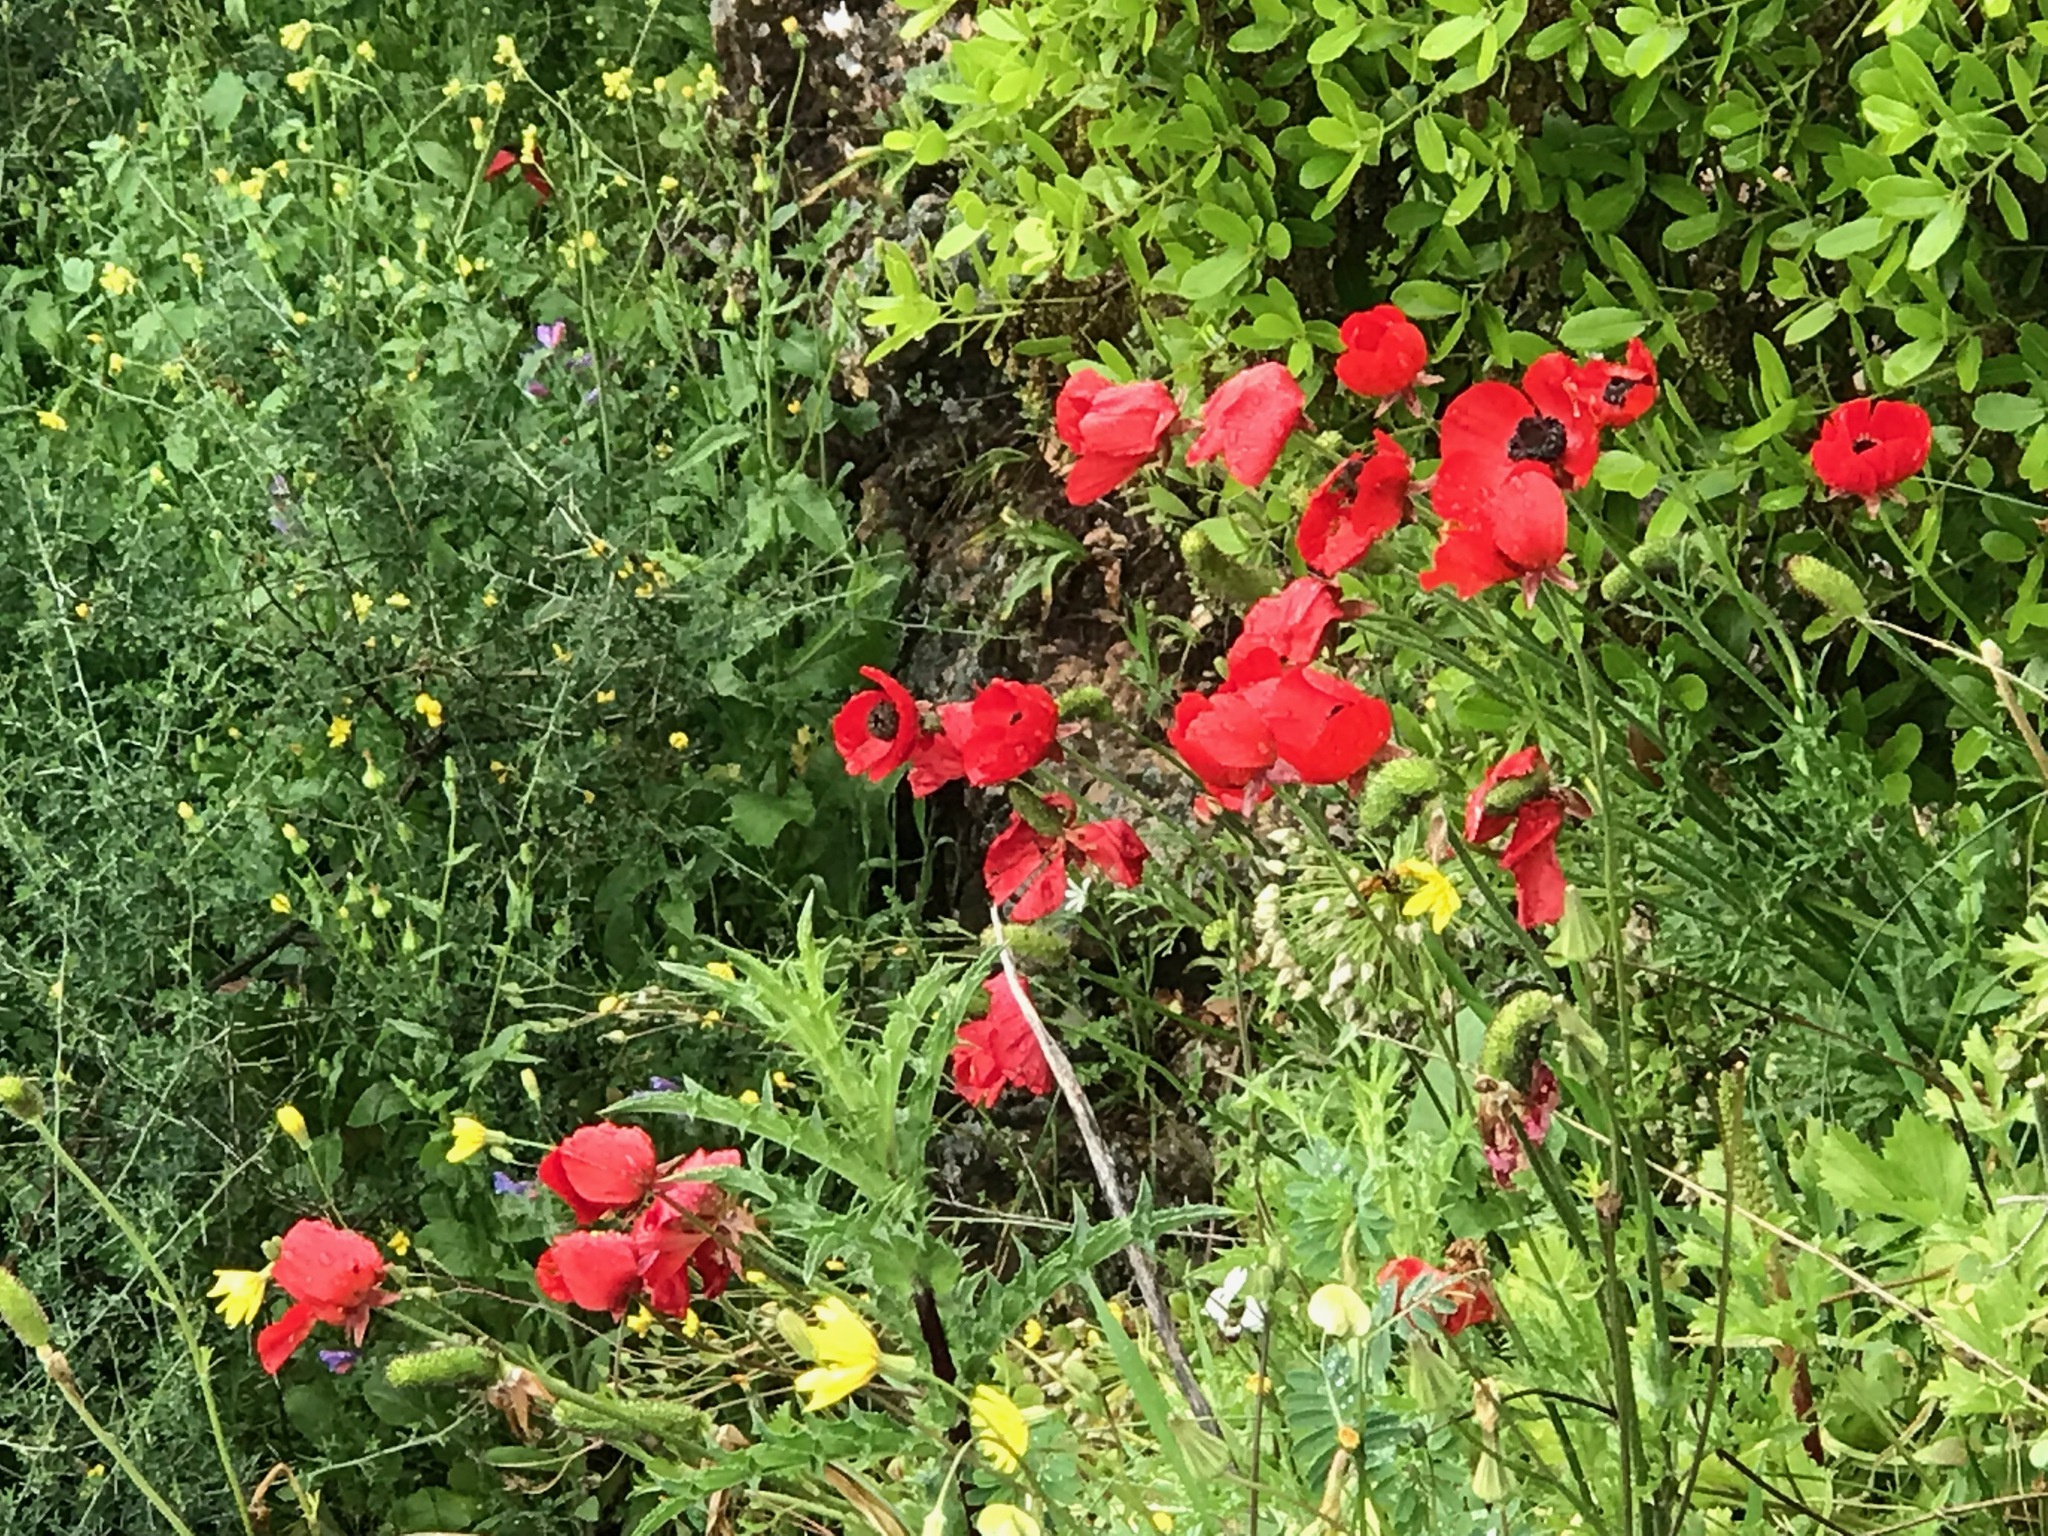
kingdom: Plantae
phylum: Tracheophyta
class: Magnoliopsida
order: Ranunculales
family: Ranunculaceae
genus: Anemone
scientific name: Anemone coronaria
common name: Poppy anemone
